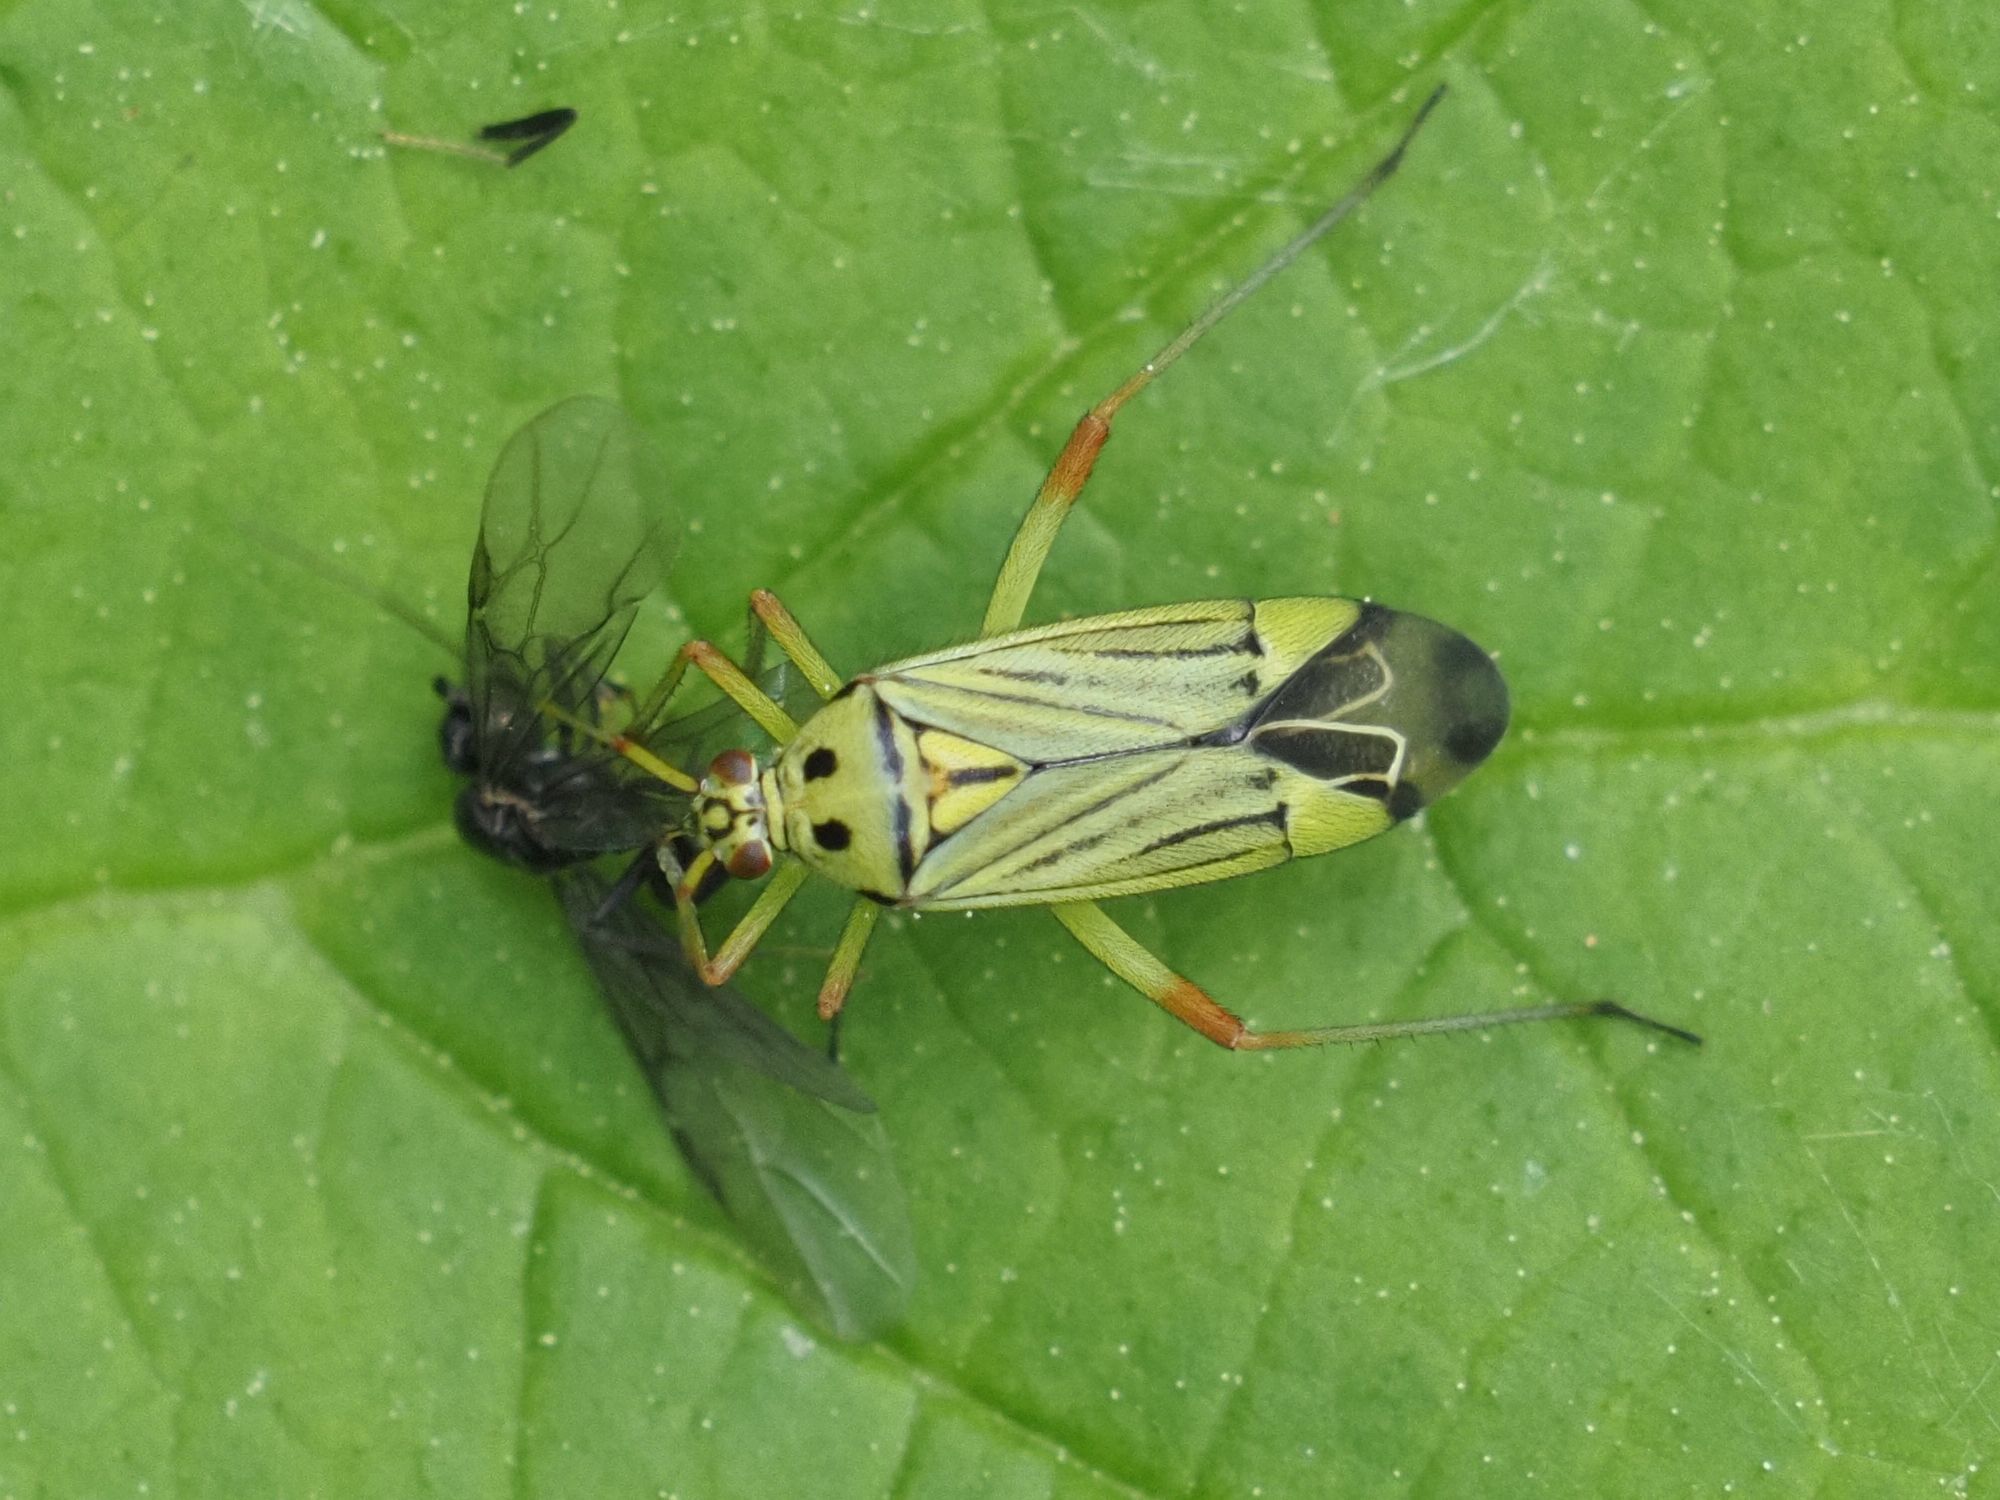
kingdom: Animalia
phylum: Arthropoda
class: Insecta
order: Hemiptera
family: Miridae
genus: Mermitelocerus
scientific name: Mermitelocerus schmidtii
